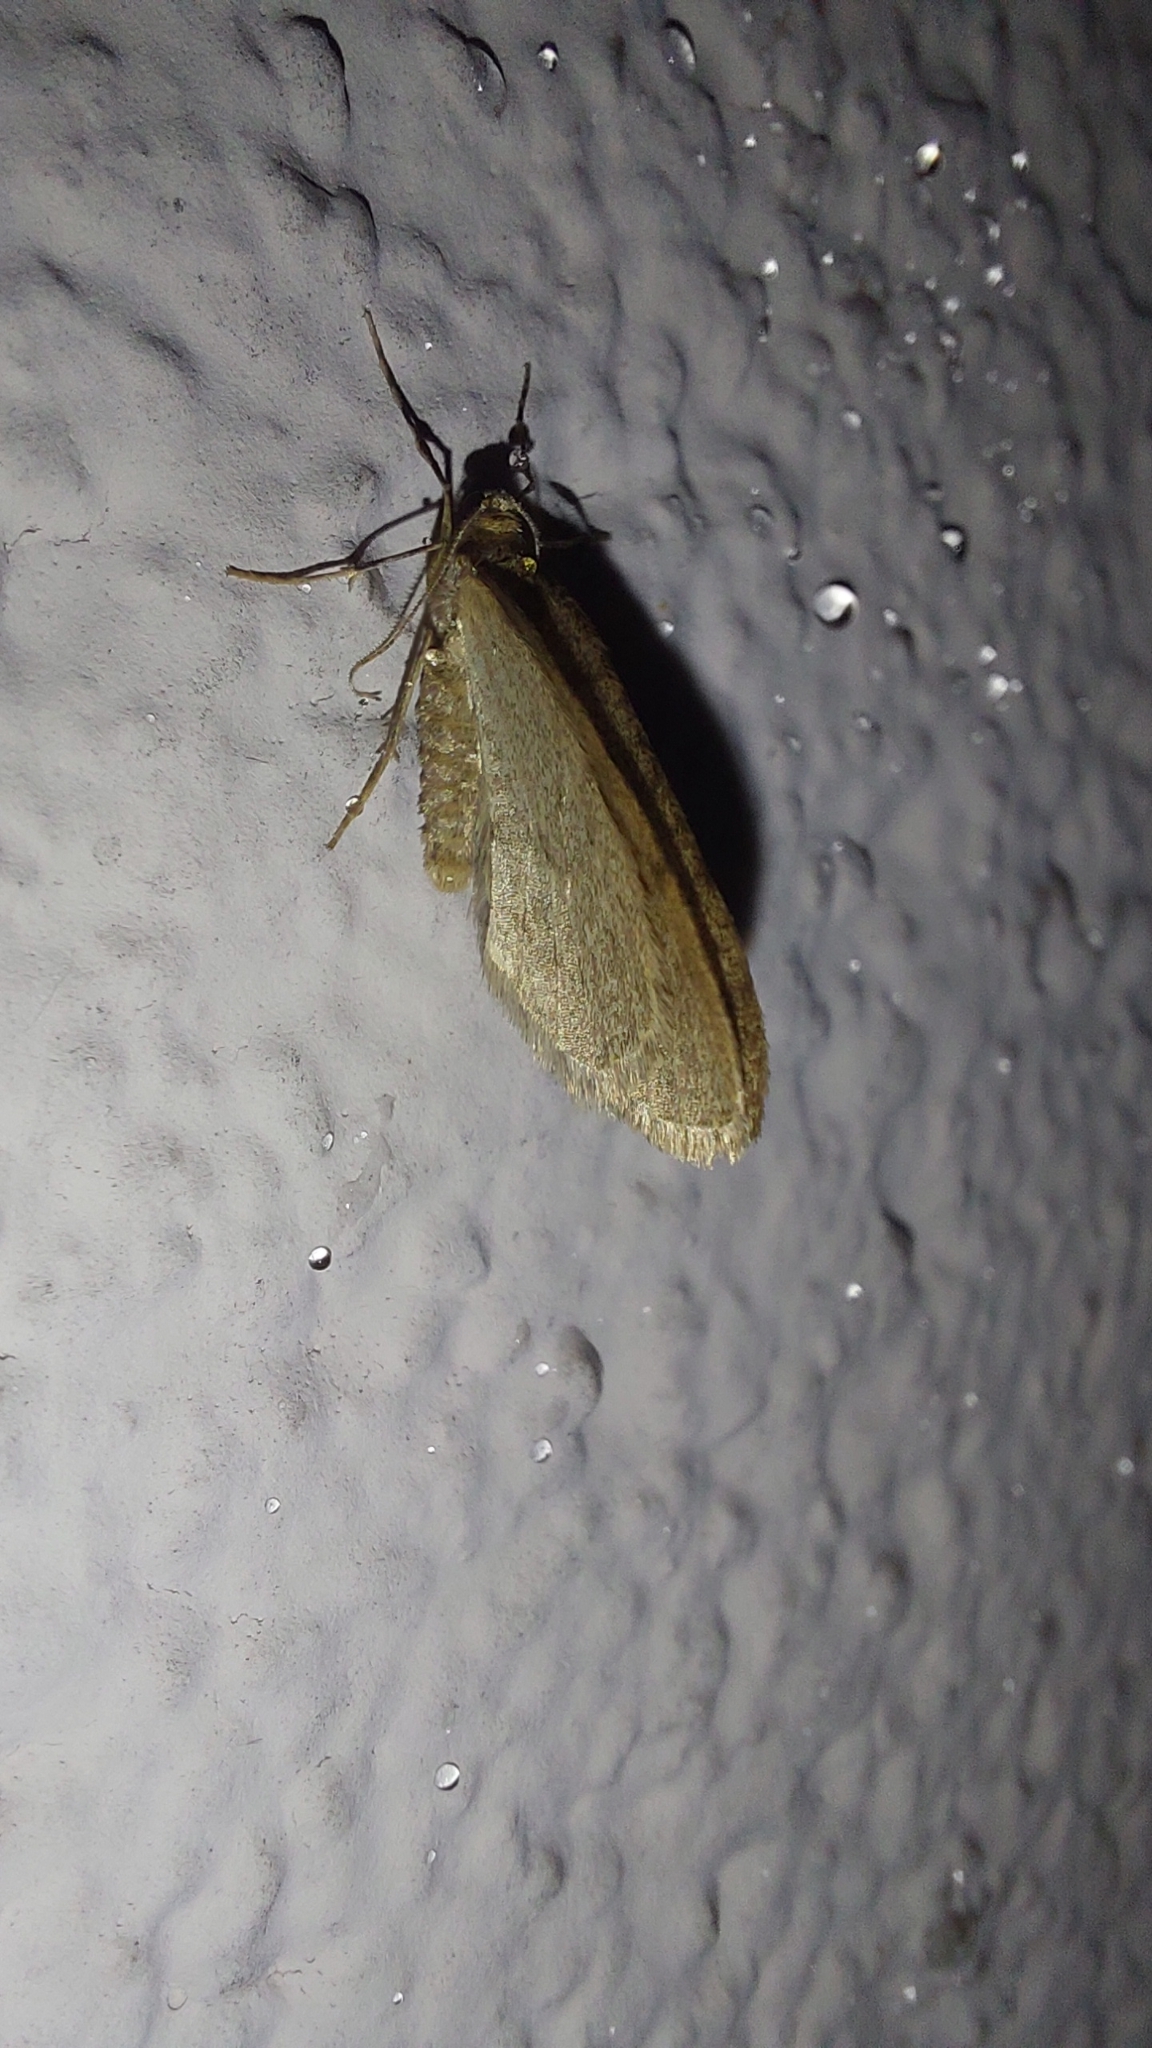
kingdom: Animalia
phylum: Arthropoda
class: Insecta
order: Lepidoptera
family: Geometridae
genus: Operophtera
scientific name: Operophtera brumata
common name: Winter moth
